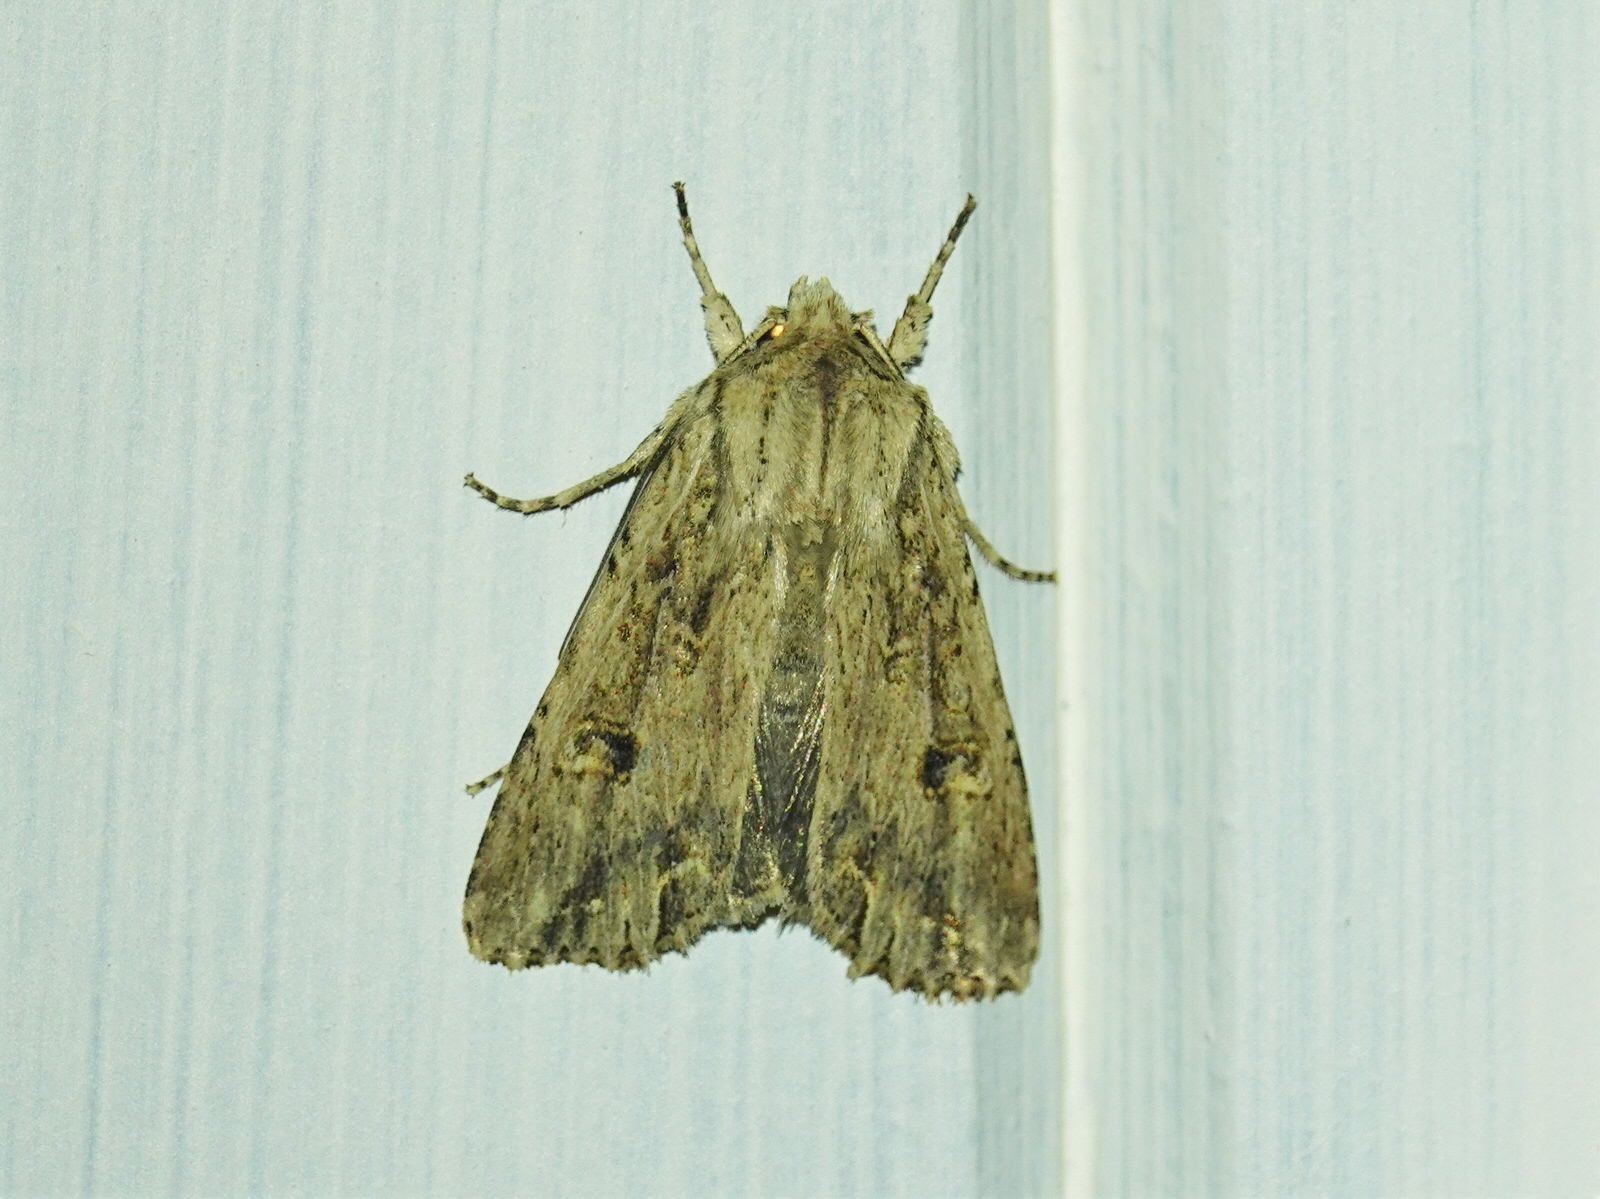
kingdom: Animalia
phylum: Arthropoda
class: Insecta
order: Lepidoptera
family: Noctuidae
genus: Ichneutica
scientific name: Ichneutica lignana
